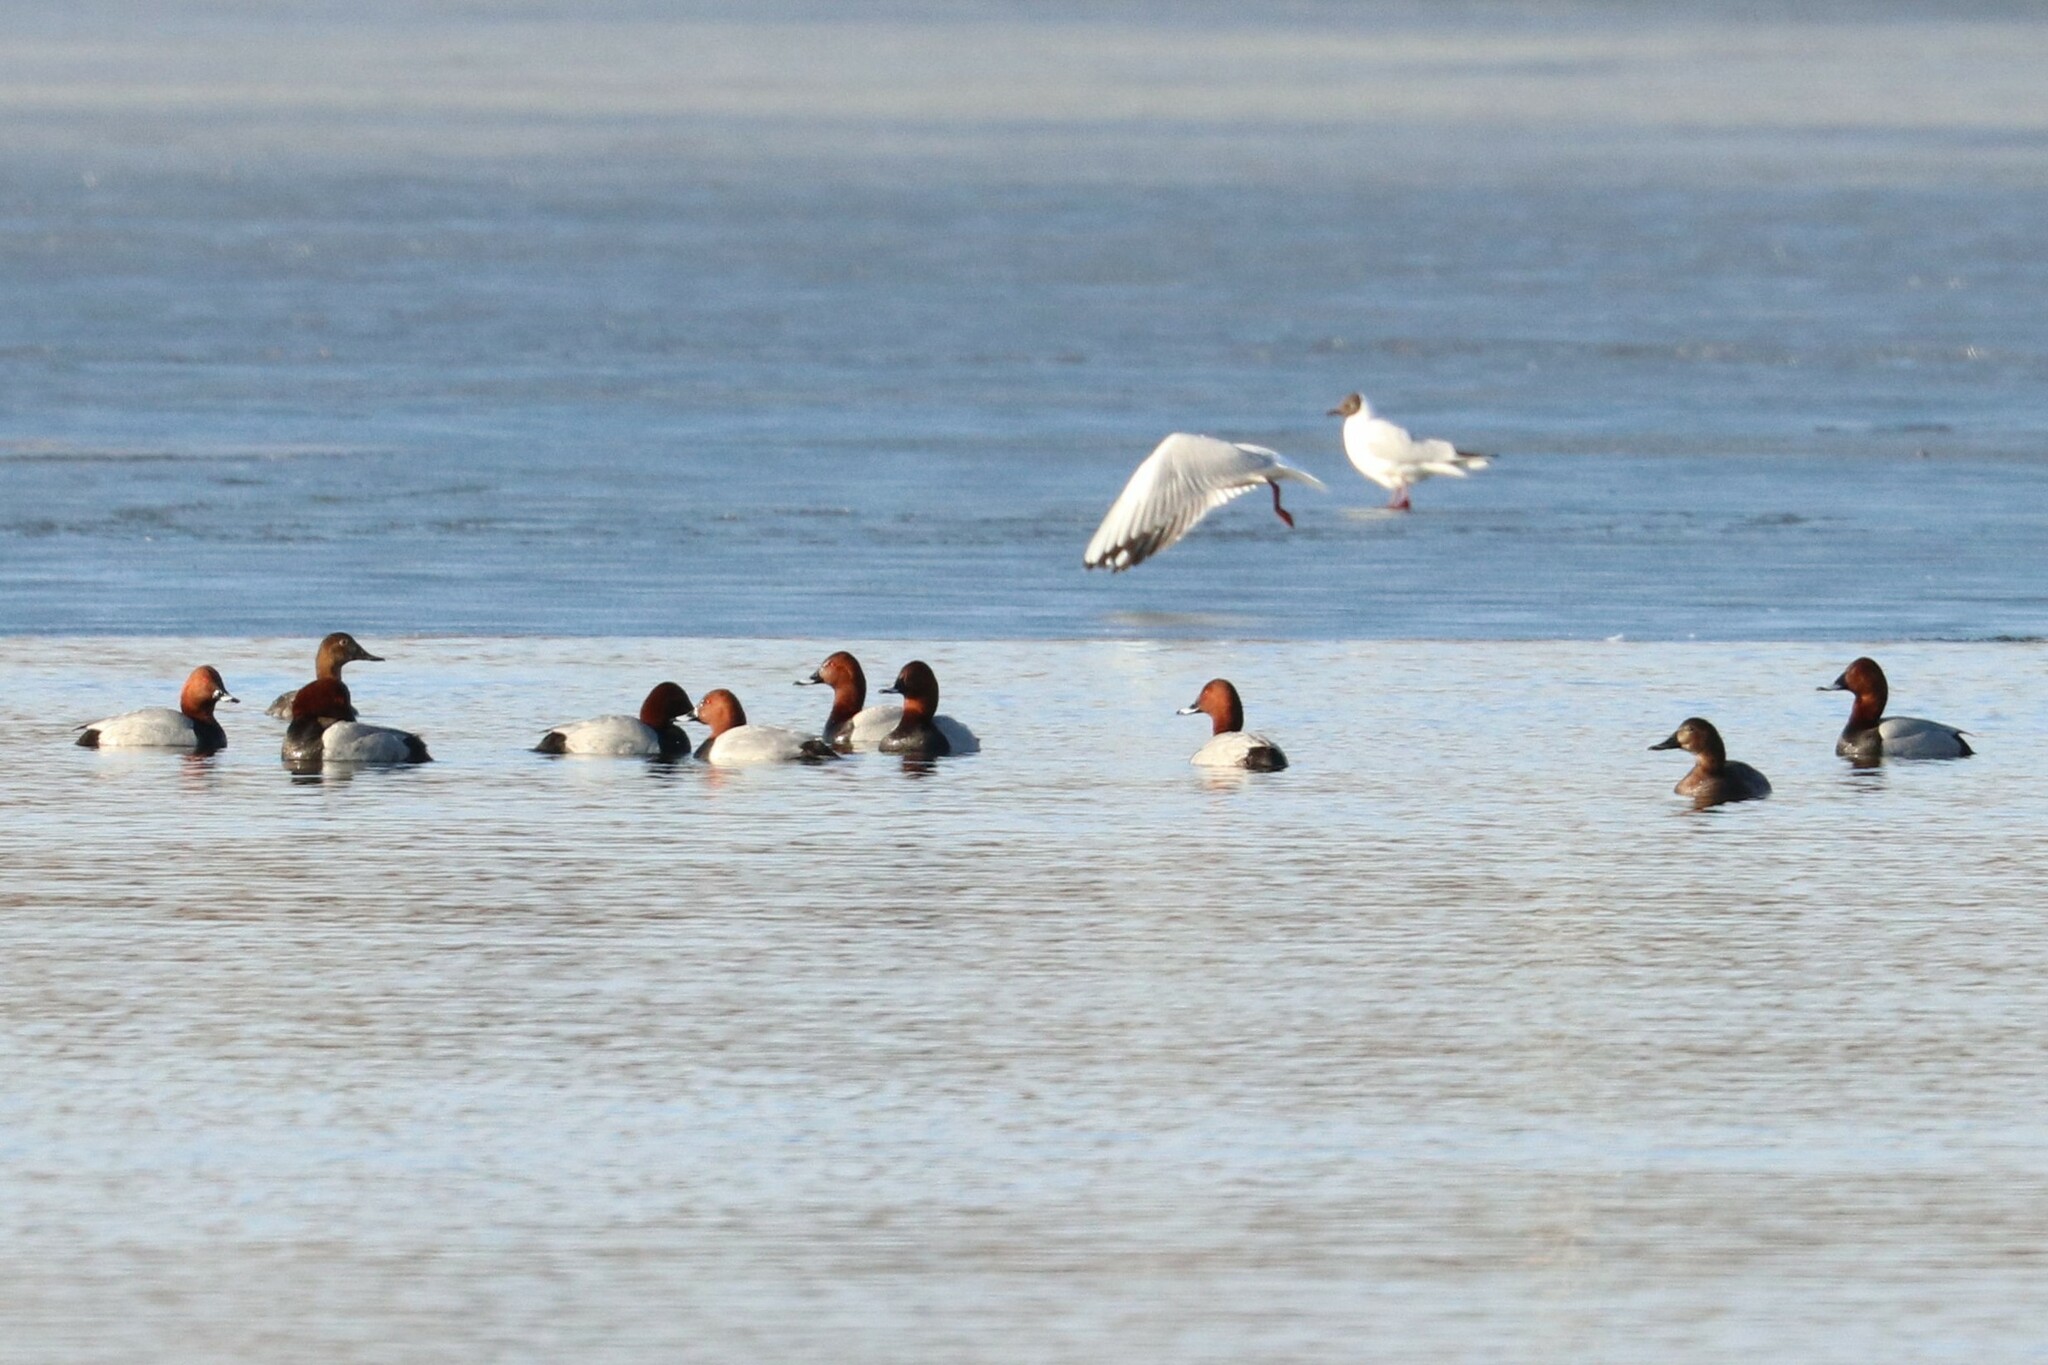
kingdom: Animalia
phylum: Chordata
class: Aves
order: Anseriformes
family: Anatidae
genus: Aythya
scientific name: Aythya ferina
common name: Common pochard
